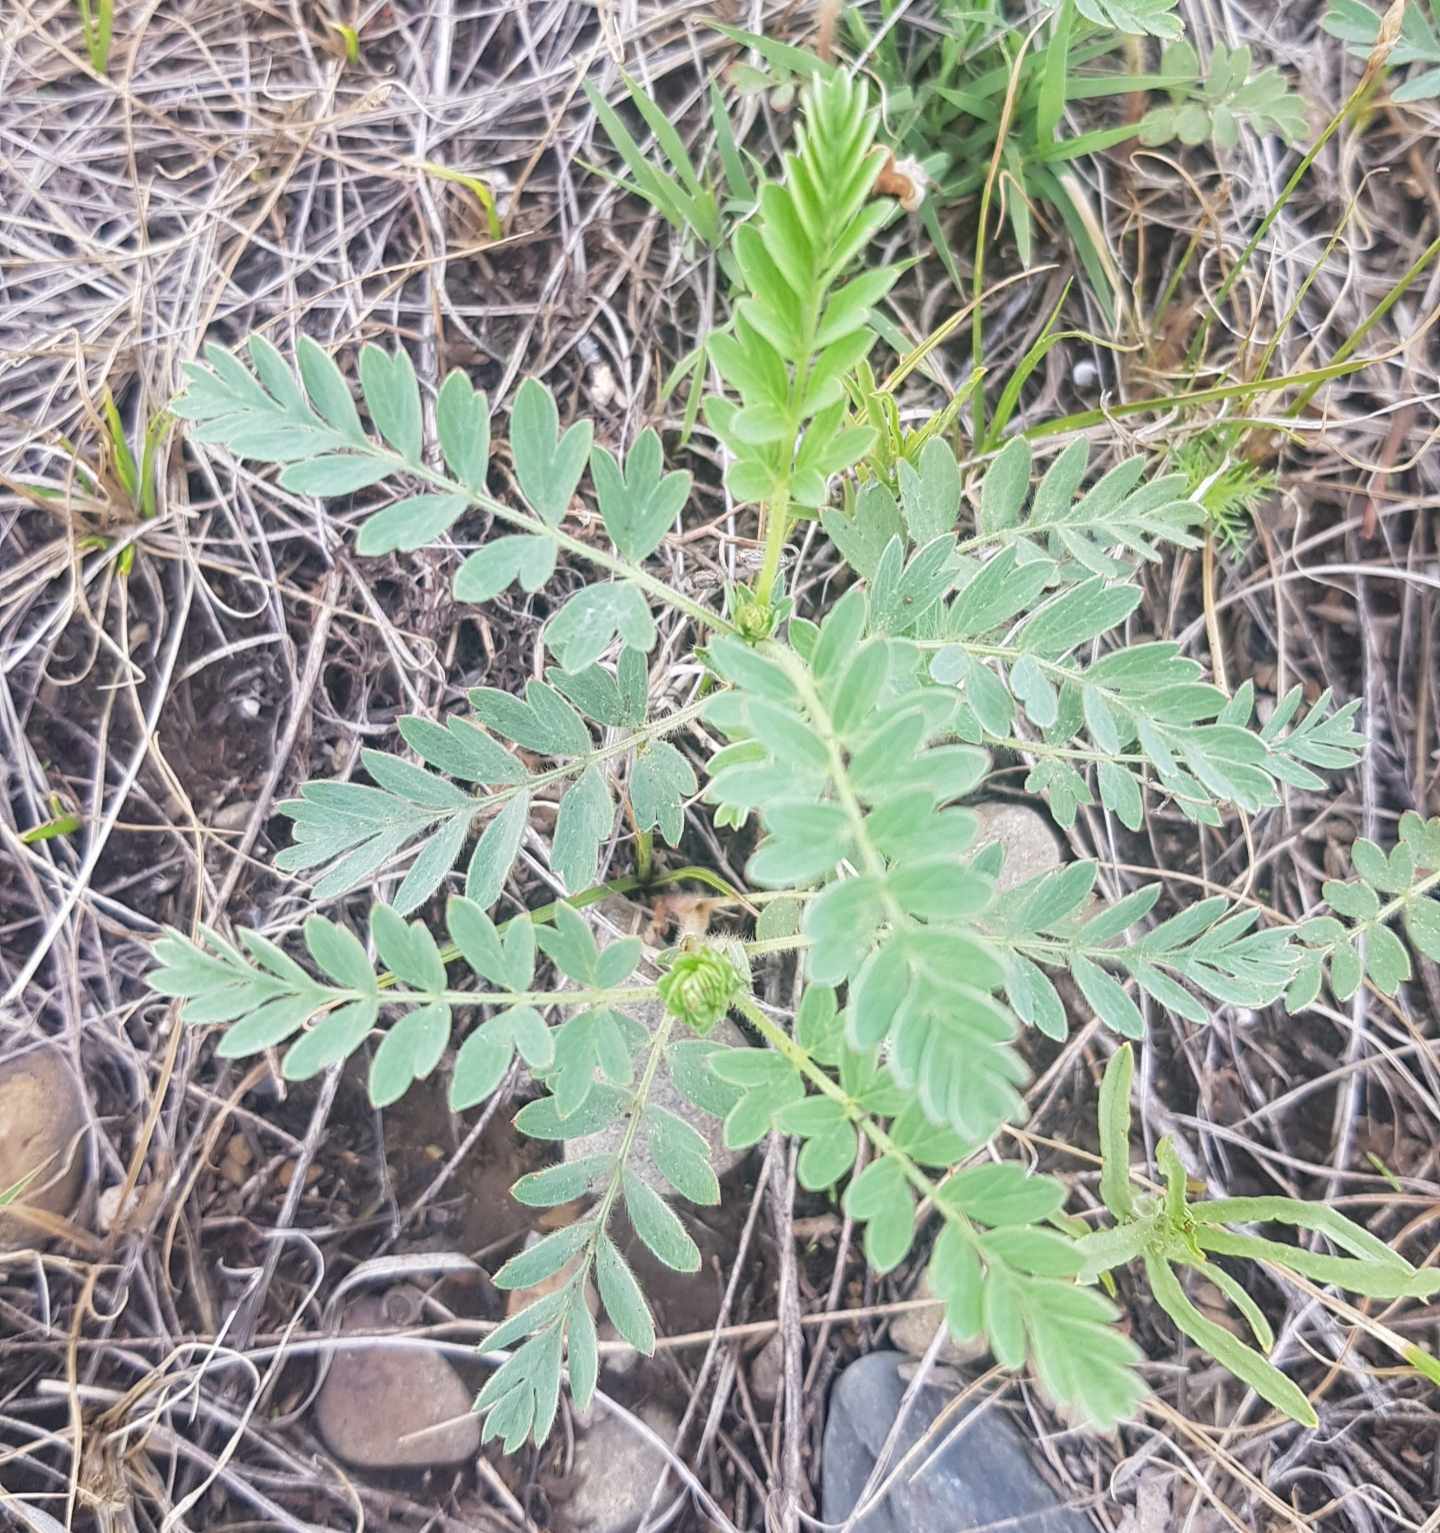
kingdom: Plantae
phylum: Tracheophyta
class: Magnoliopsida
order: Rosales
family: Rosaceae
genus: Sibbaldianthe
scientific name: Sibbaldianthe bifurca
